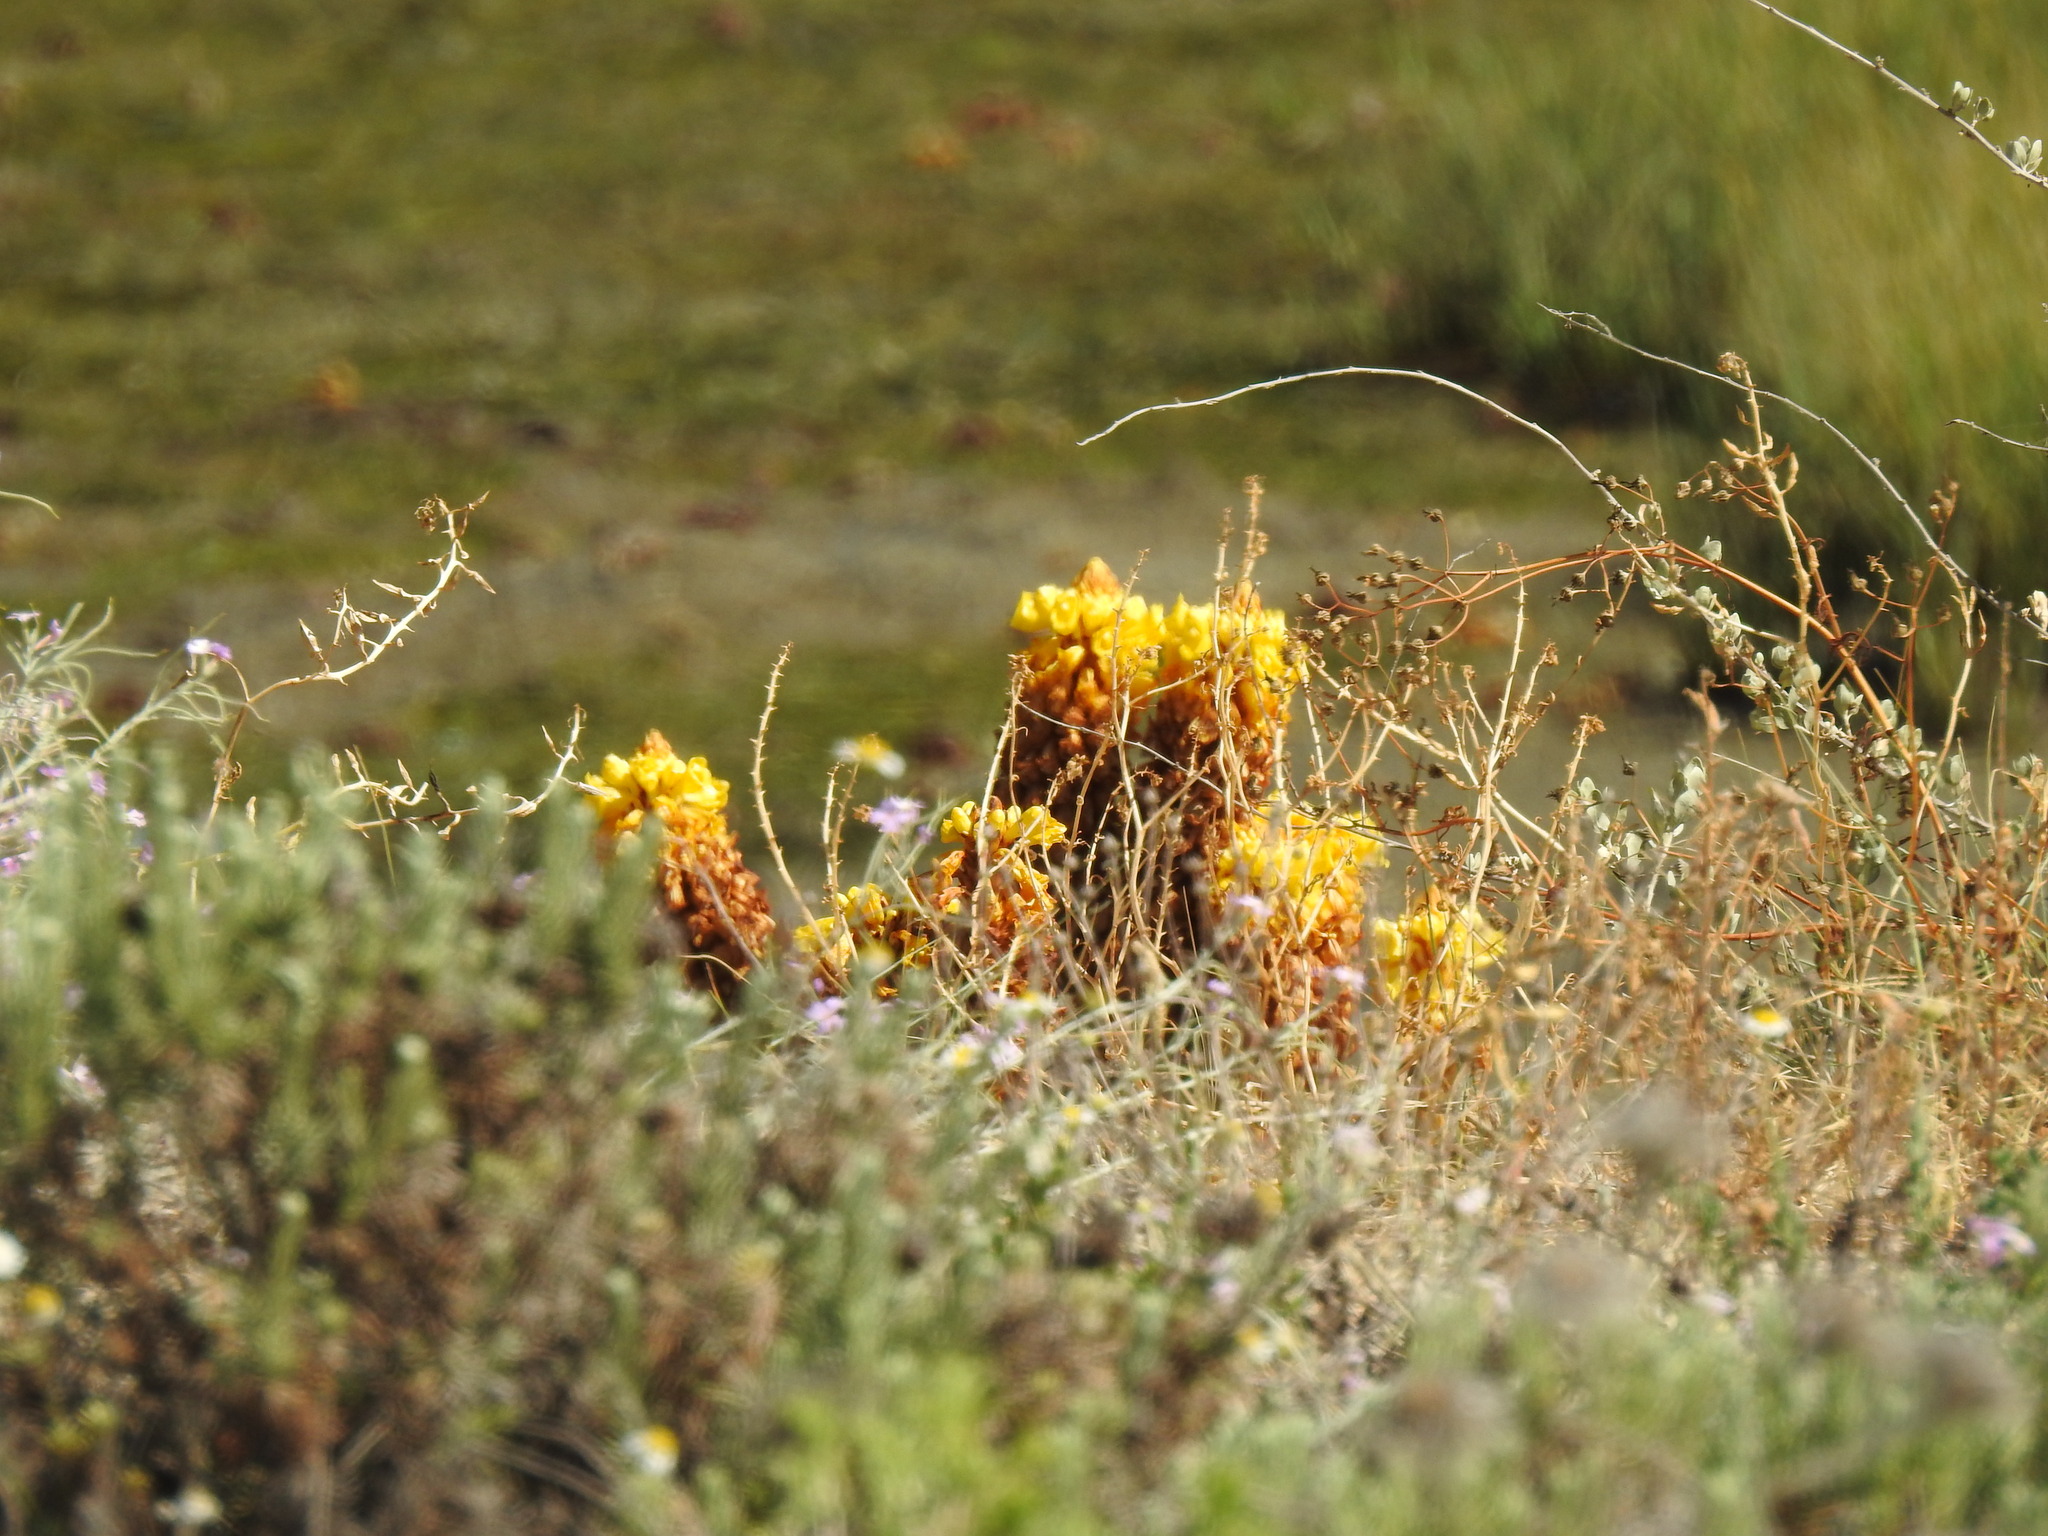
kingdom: Plantae
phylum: Tracheophyta
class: Magnoliopsida
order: Lamiales
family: Orobanchaceae
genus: Cistanche
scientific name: Cistanche phelypaea
